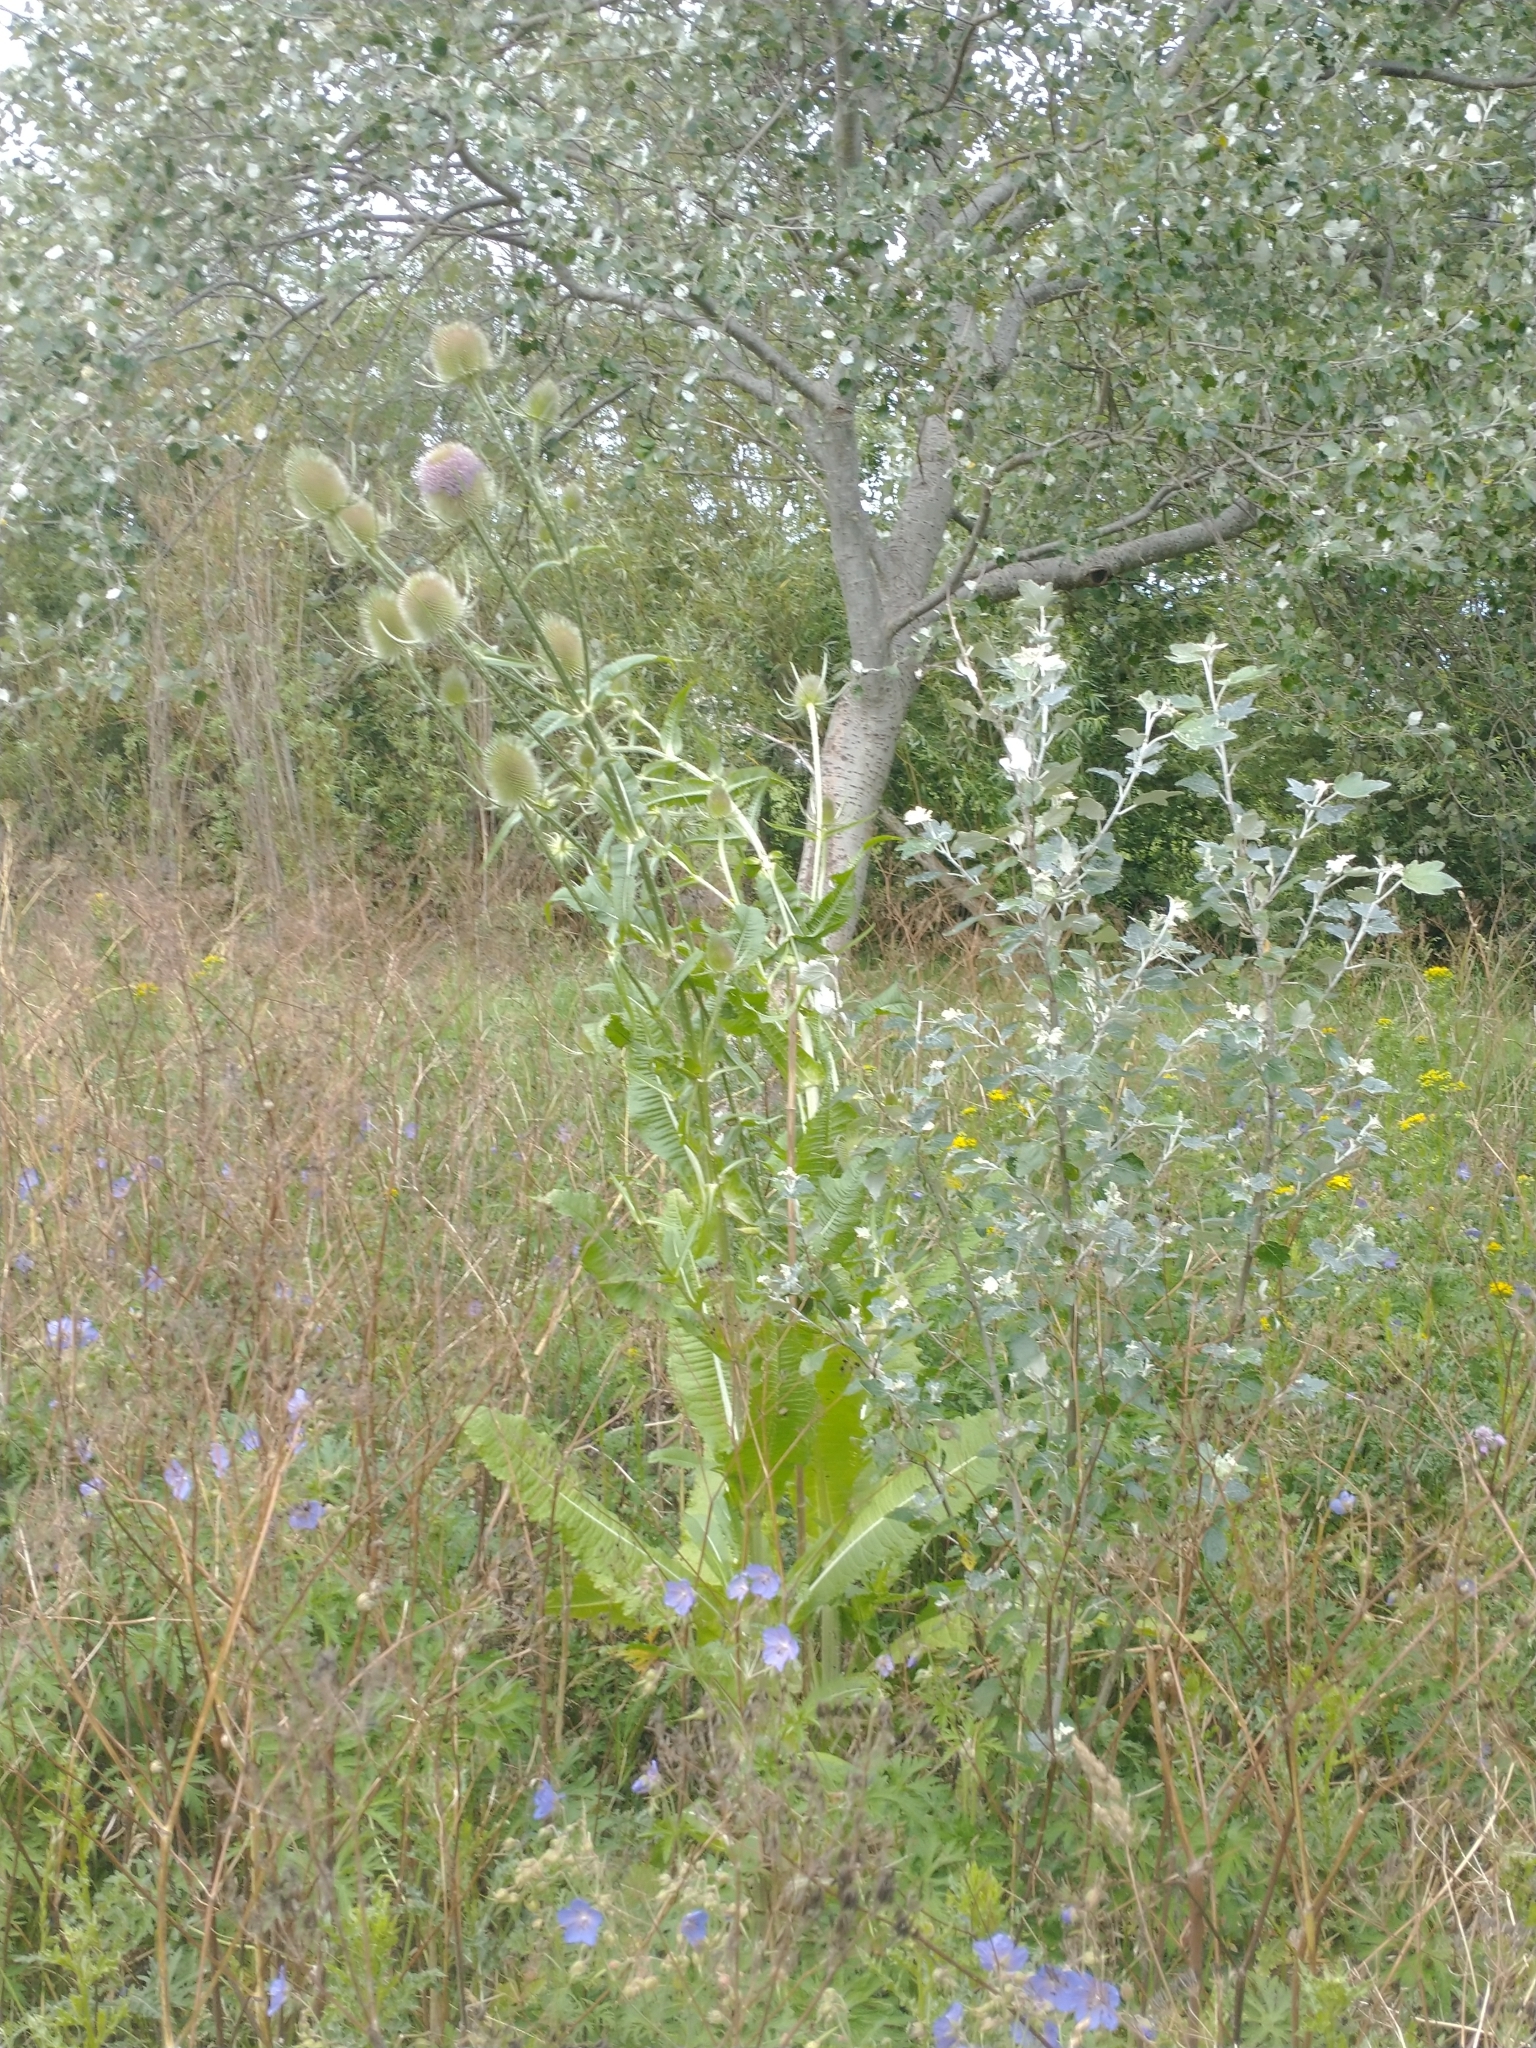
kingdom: Plantae
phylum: Tracheophyta
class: Magnoliopsida
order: Dipsacales
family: Caprifoliaceae
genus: Dipsacus
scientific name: Dipsacus fullonum
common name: Teasel
